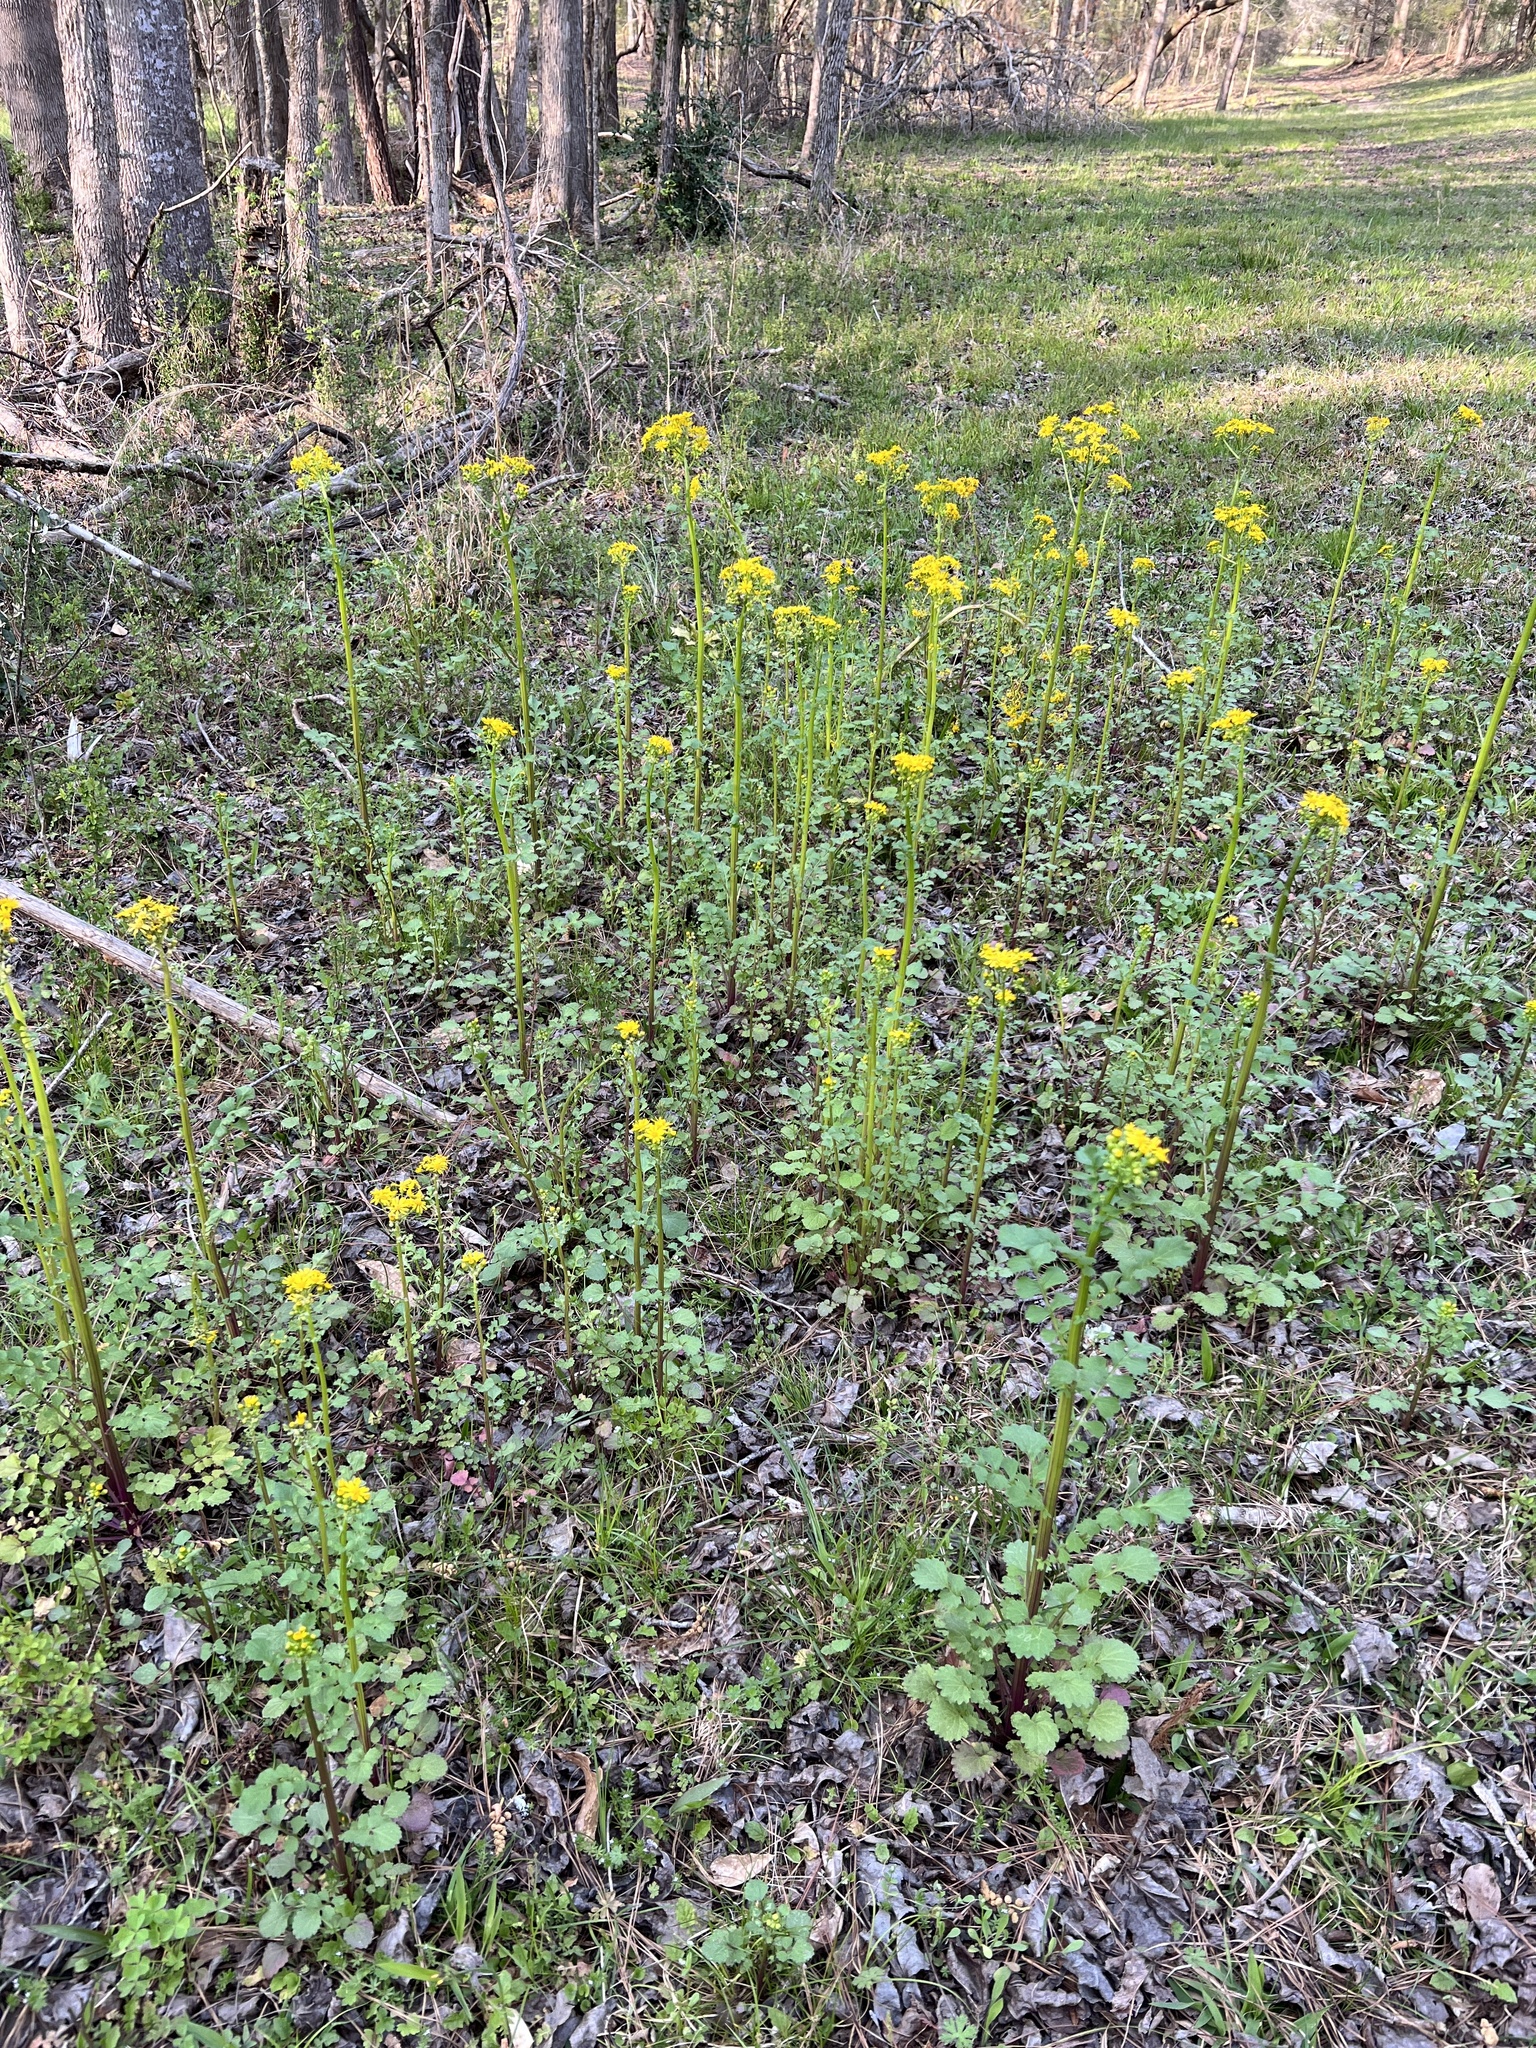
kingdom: Plantae
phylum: Tracheophyta
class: Magnoliopsida
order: Asterales
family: Asteraceae
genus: Packera
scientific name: Packera glabella
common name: Butterweed
